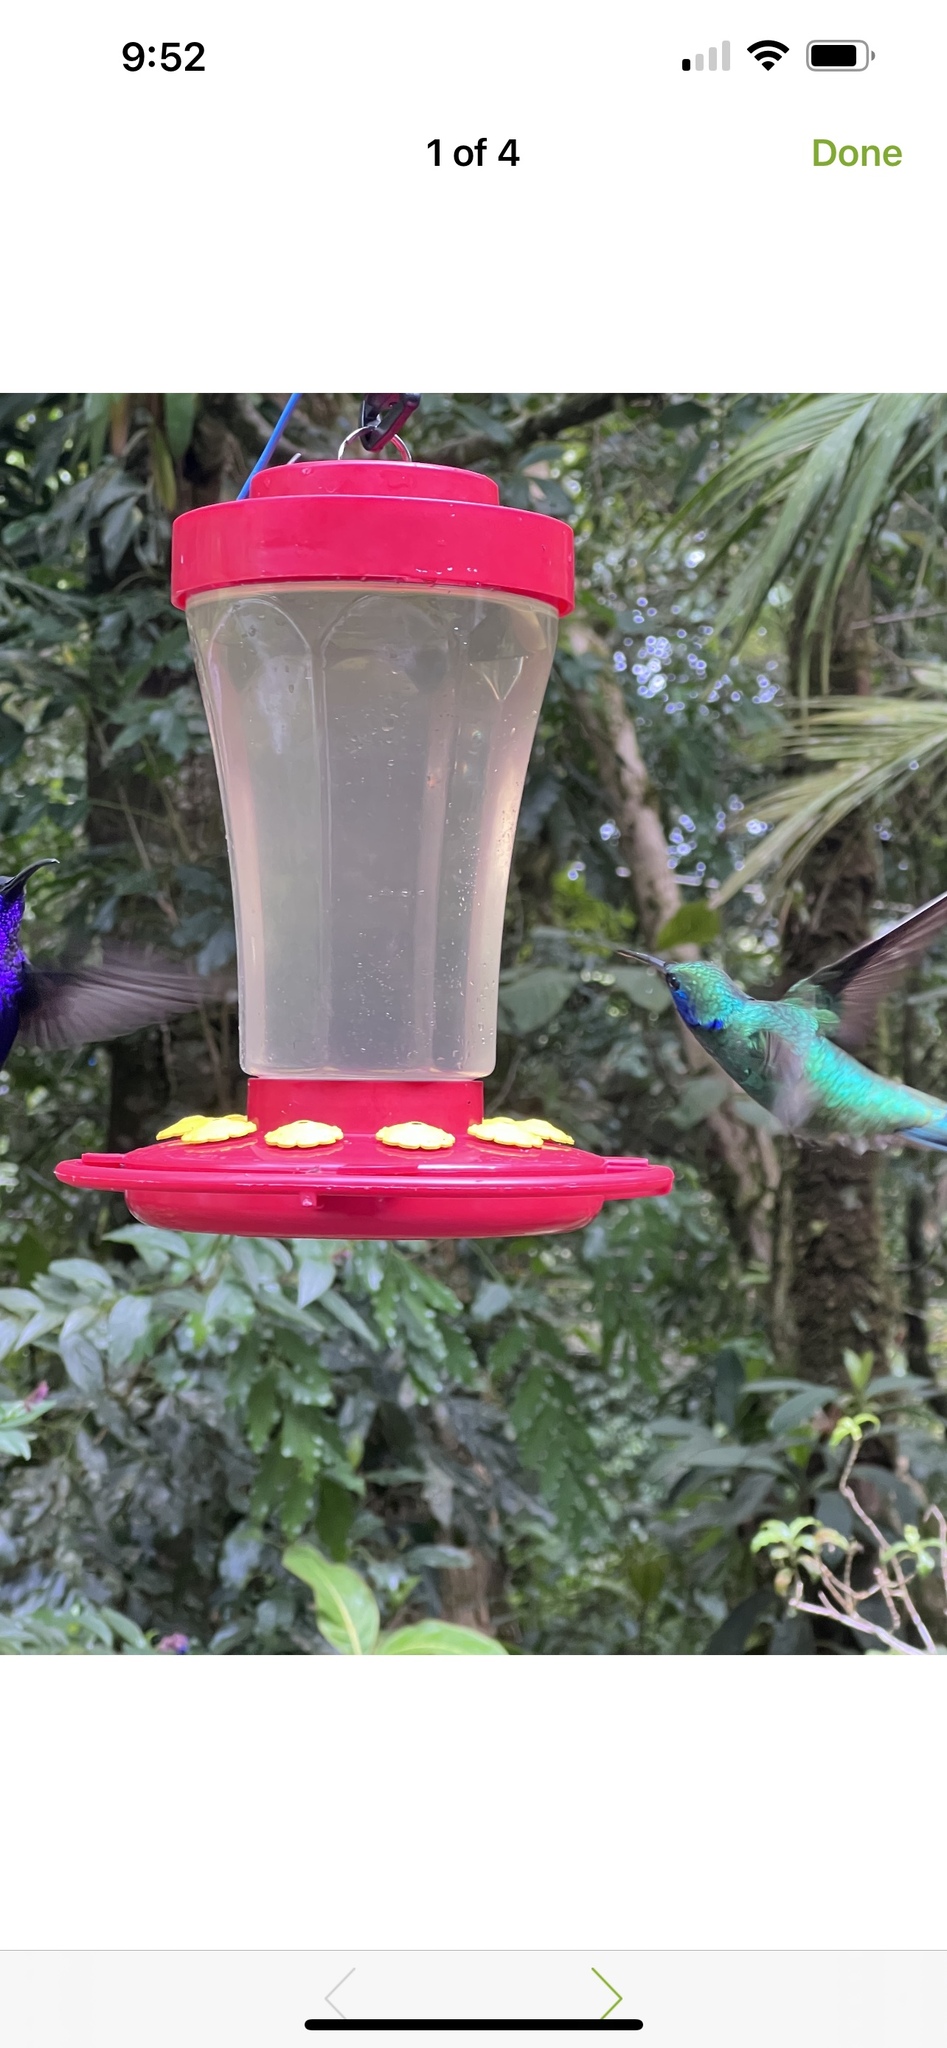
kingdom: Animalia
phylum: Chordata
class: Aves
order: Apodiformes
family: Trochilidae
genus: Colibri
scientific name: Colibri cyanotus
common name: Lesser violetear
